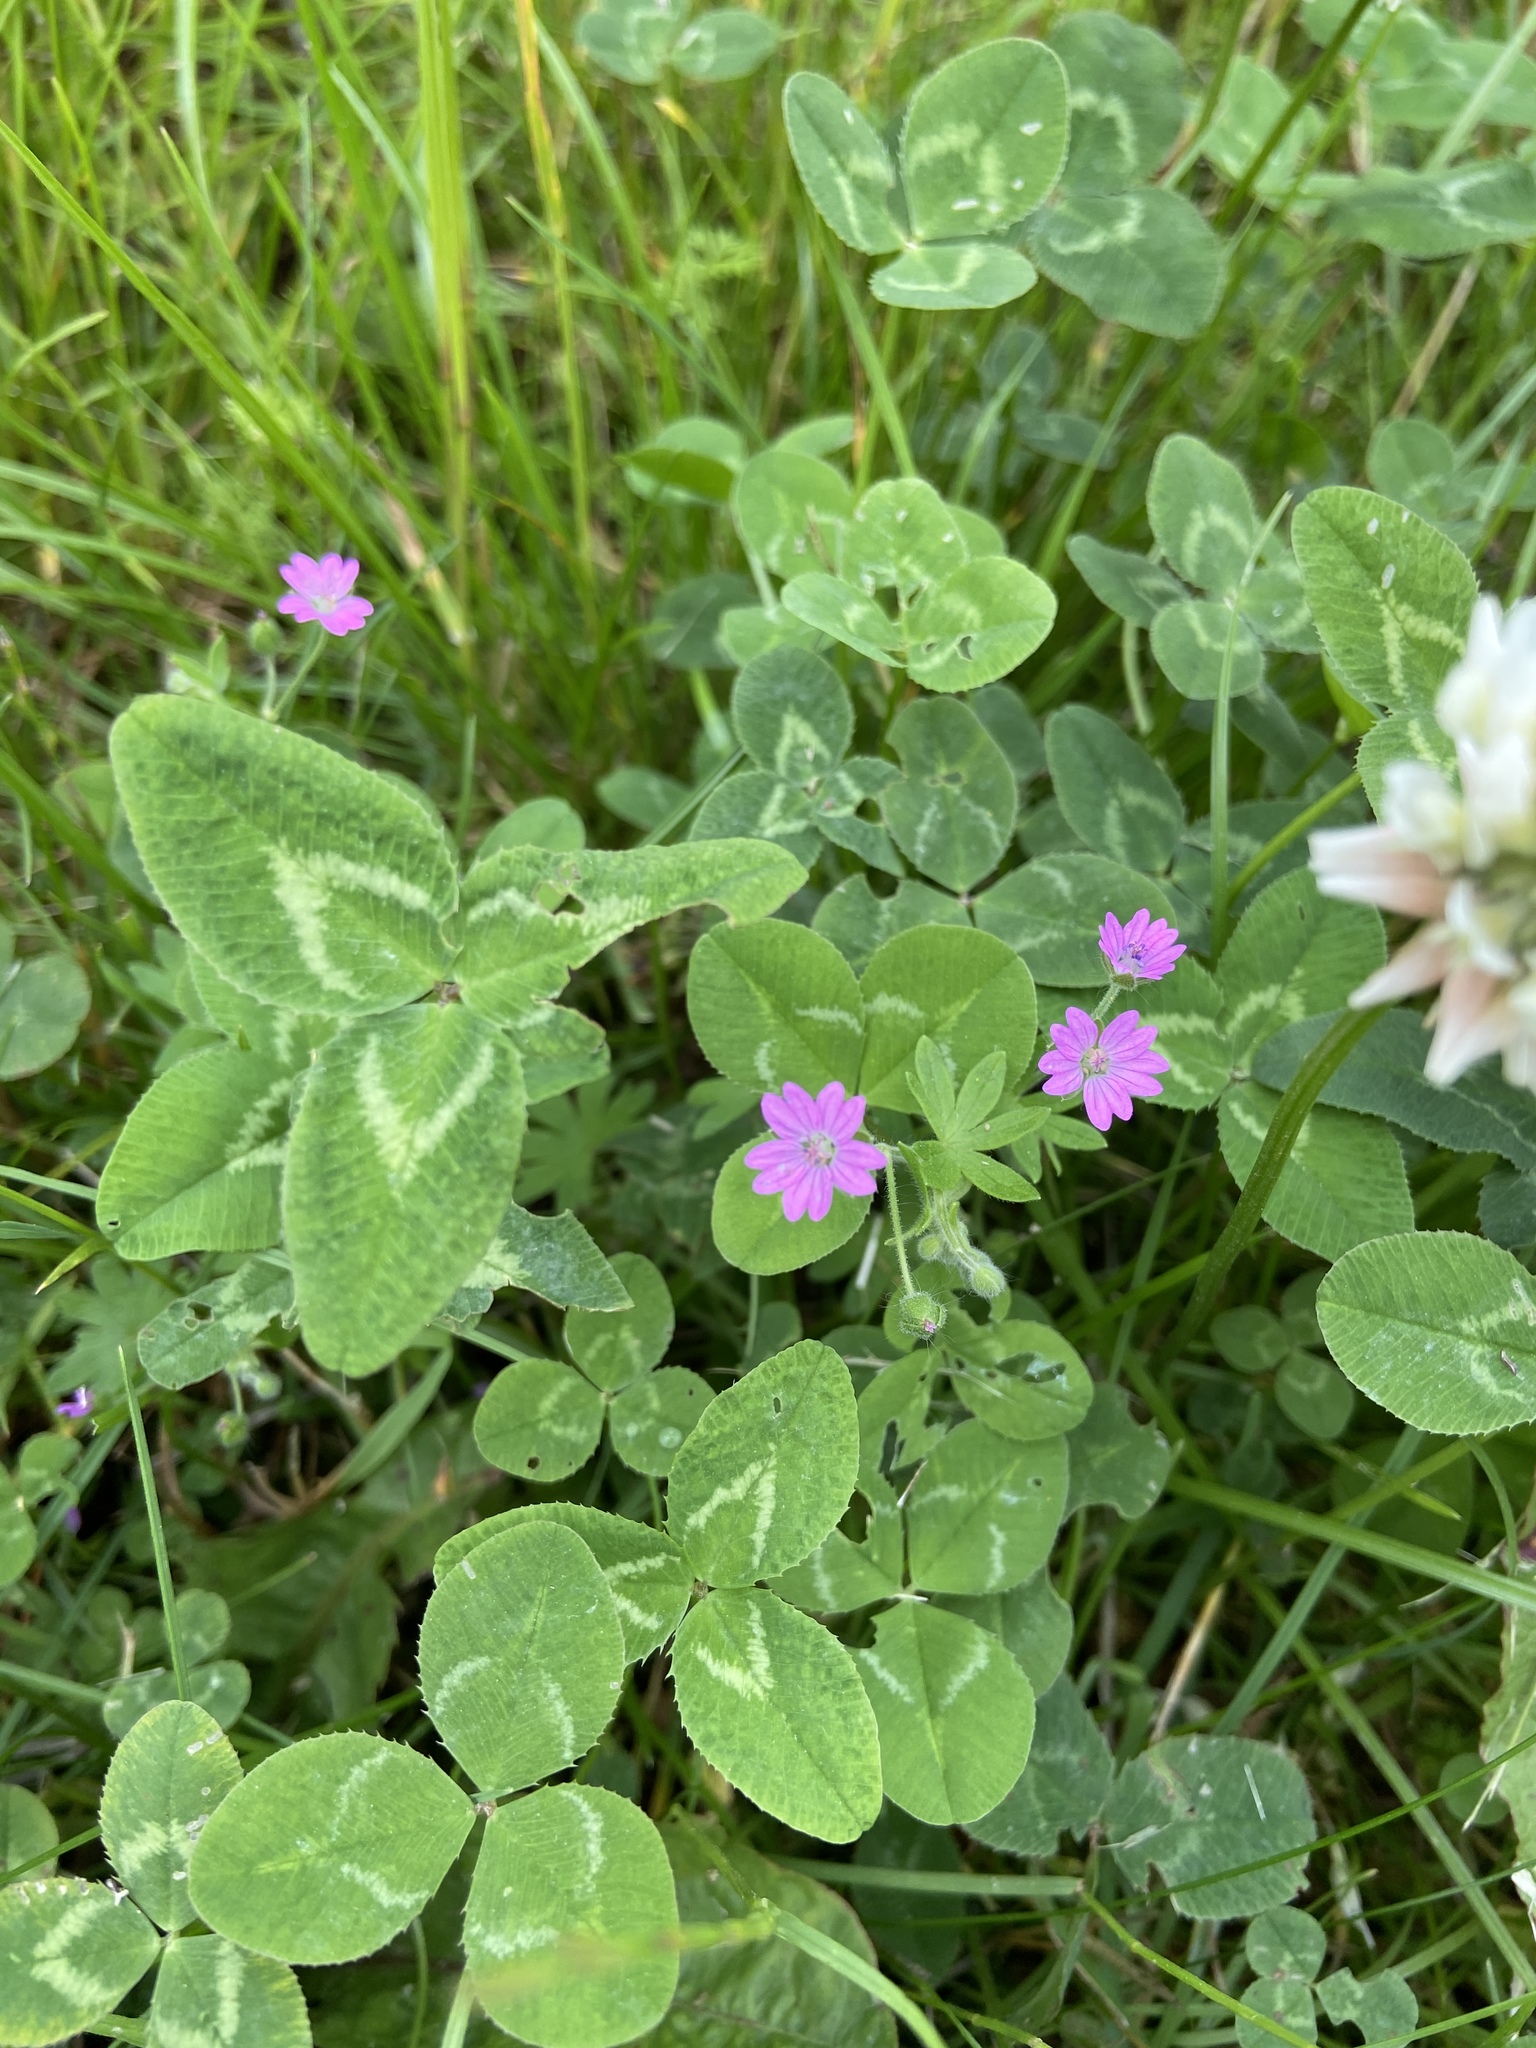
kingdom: Plantae
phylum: Tracheophyta
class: Magnoliopsida
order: Geraniales
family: Geraniaceae
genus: Geranium
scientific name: Geranium molle
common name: Dove's-foot crane's-bill
